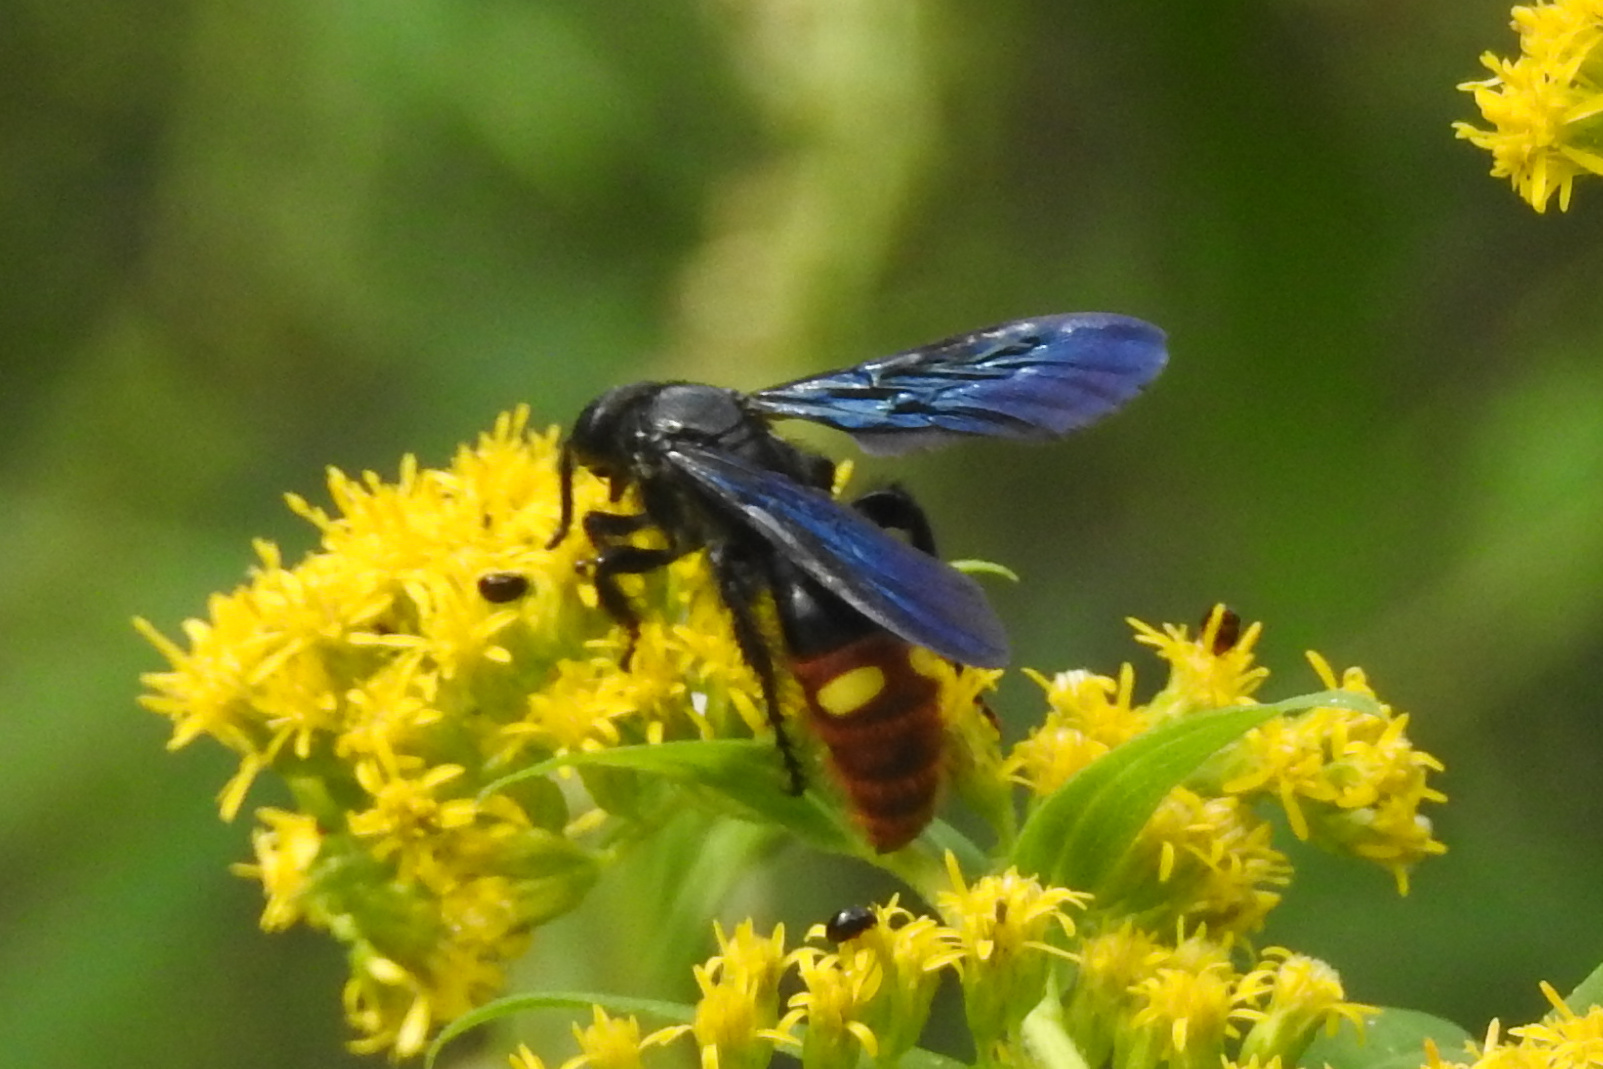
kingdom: Animalia
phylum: Arthropoda
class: Insecta
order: Hymenoptera
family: Scoliidae
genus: Scolia
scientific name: Scolia dubia
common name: Blue-winged scoliid wasp
